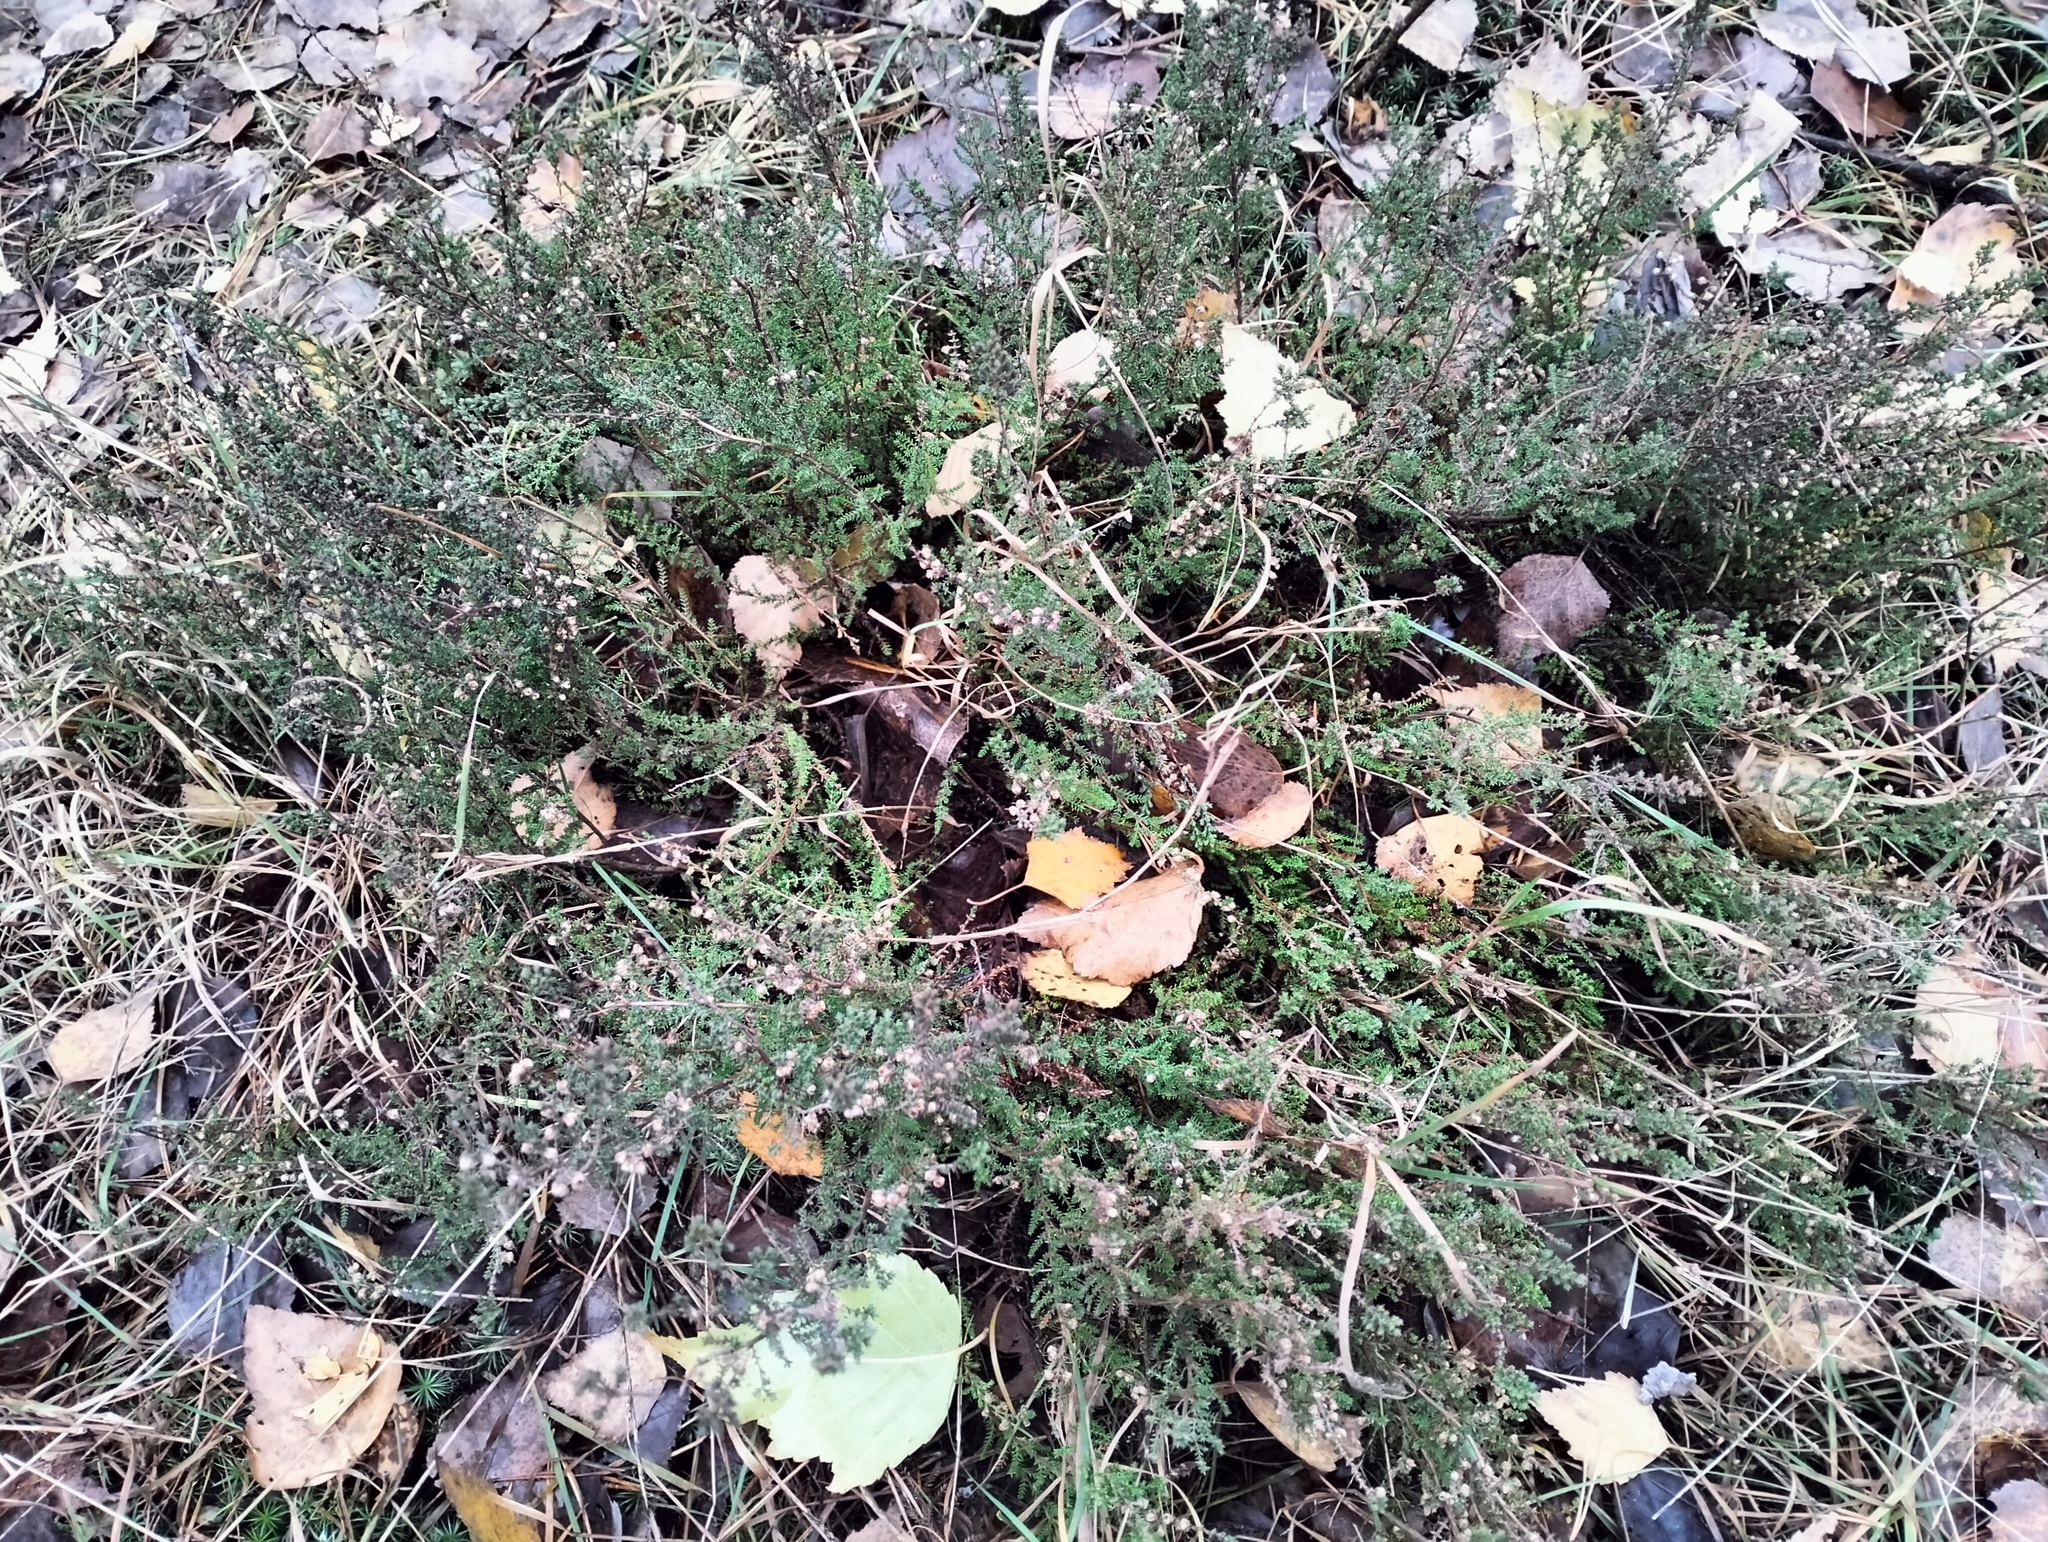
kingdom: Plantae
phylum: Tracheophyta
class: Magnoliopsida
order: Ericales
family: Ericaceae
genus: Calluna
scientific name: Calluna vulgaris
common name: Heather
